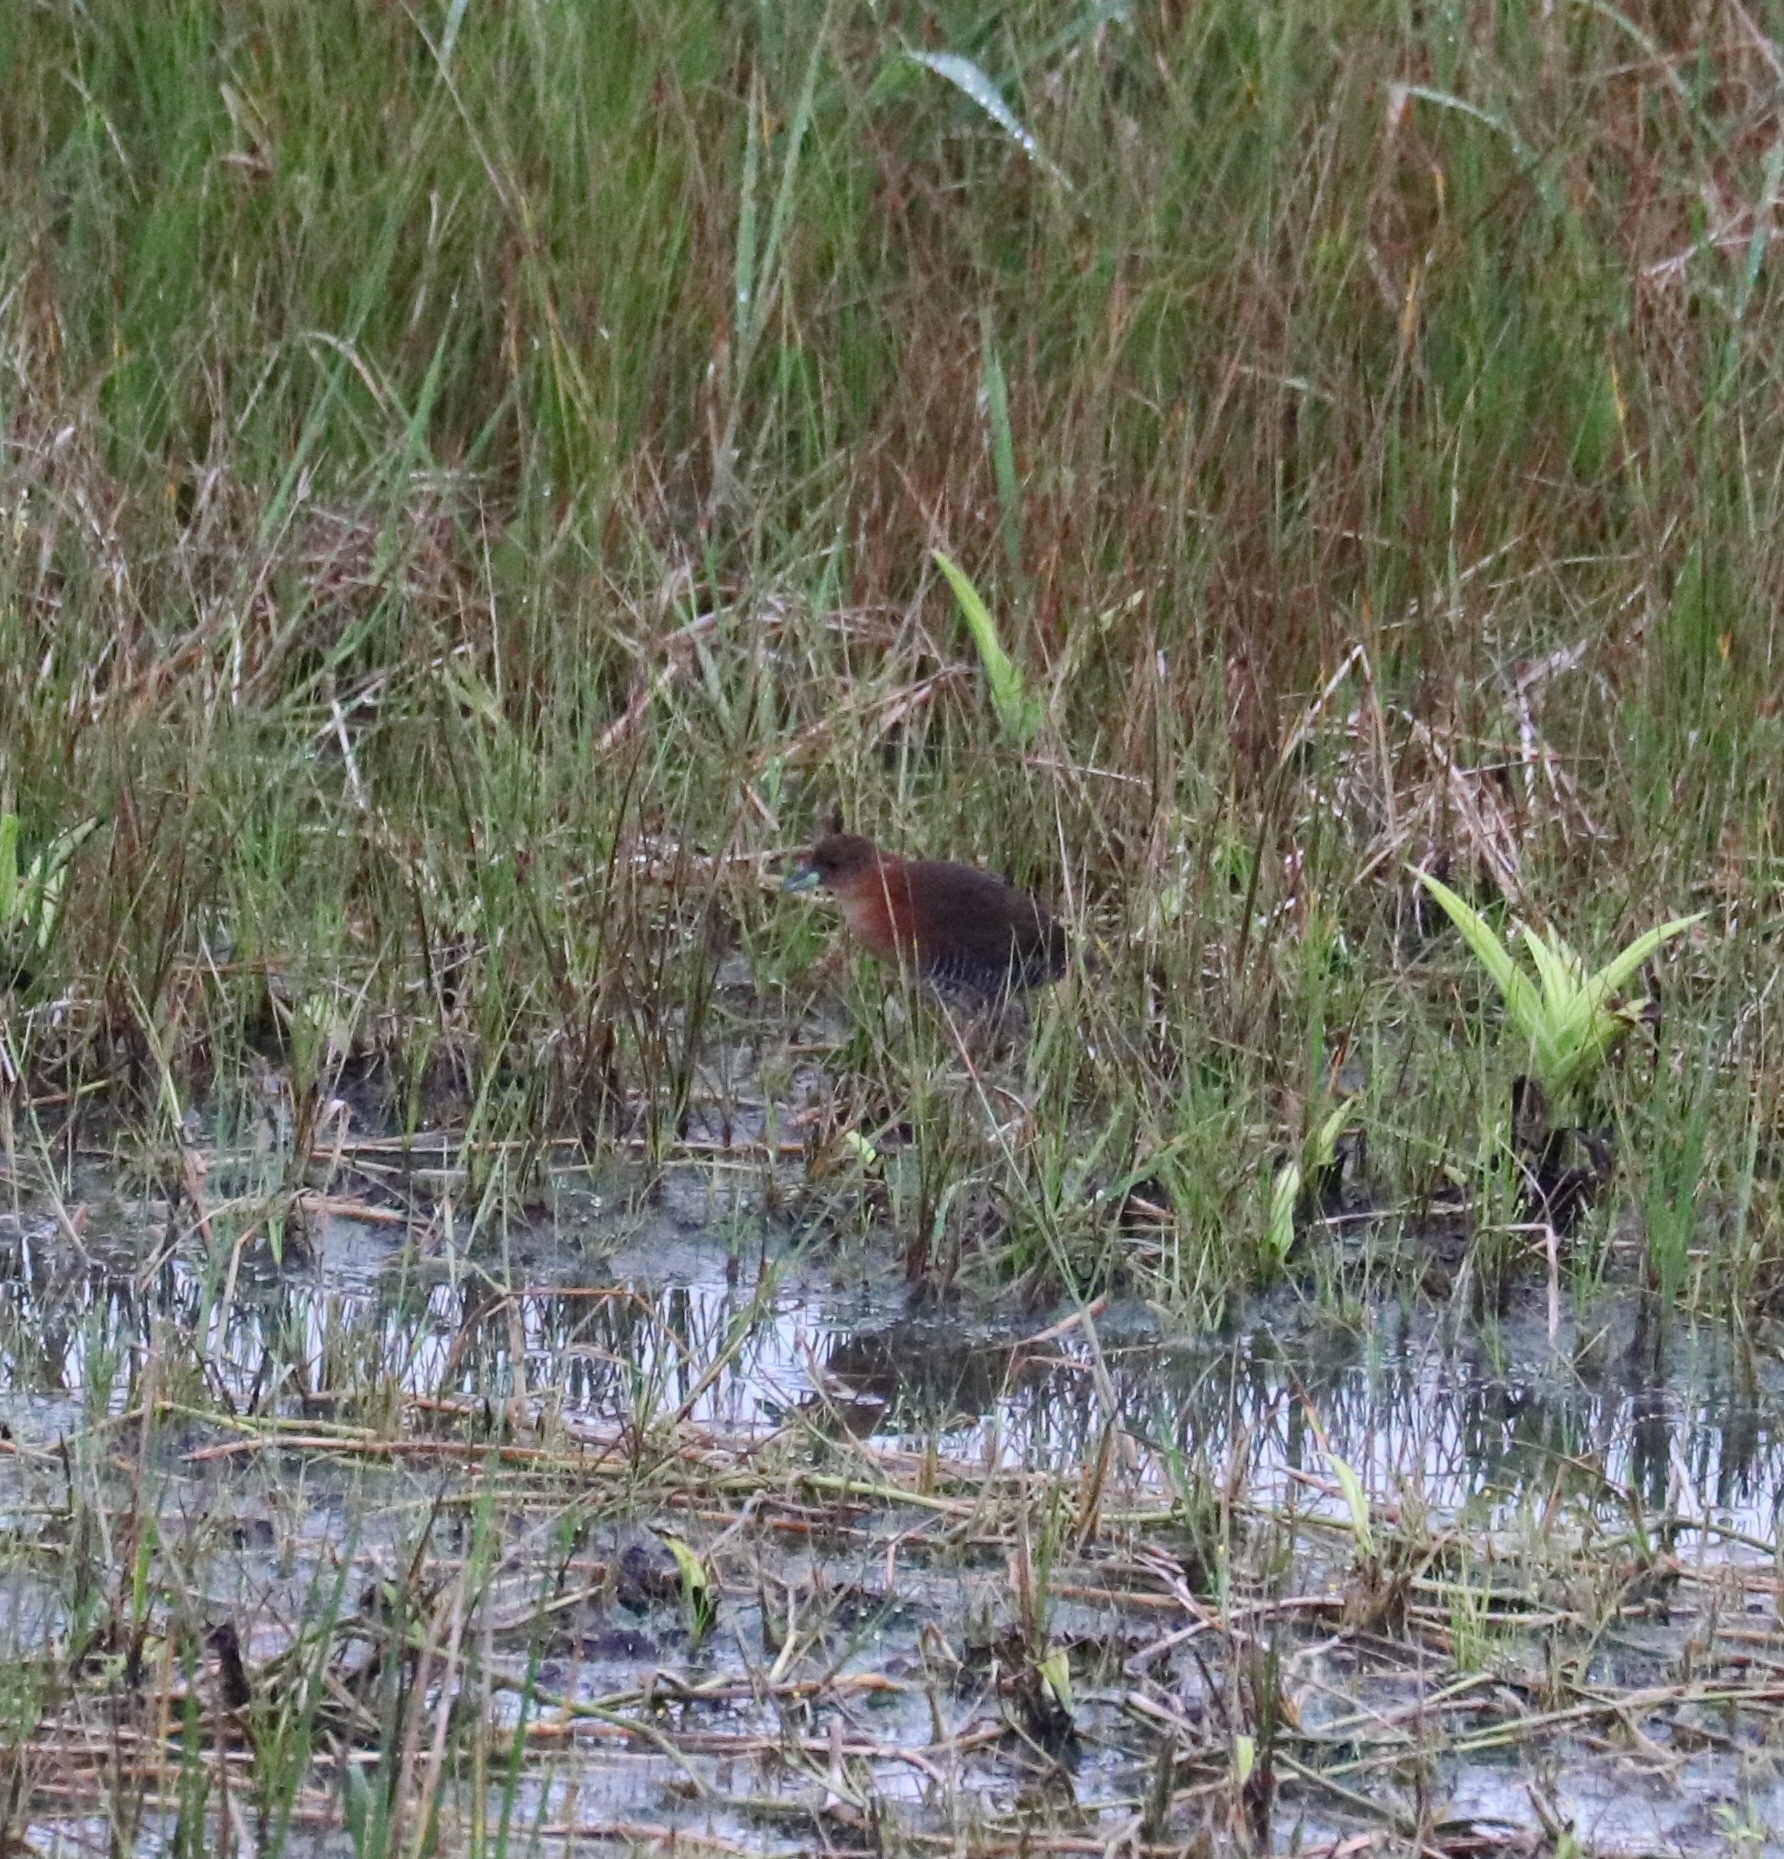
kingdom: Animalia
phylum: Chordata
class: Aves
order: Gruiformes
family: Rallidae
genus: Laterallus
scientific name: Laterallus albigularis
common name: White-throated crake
